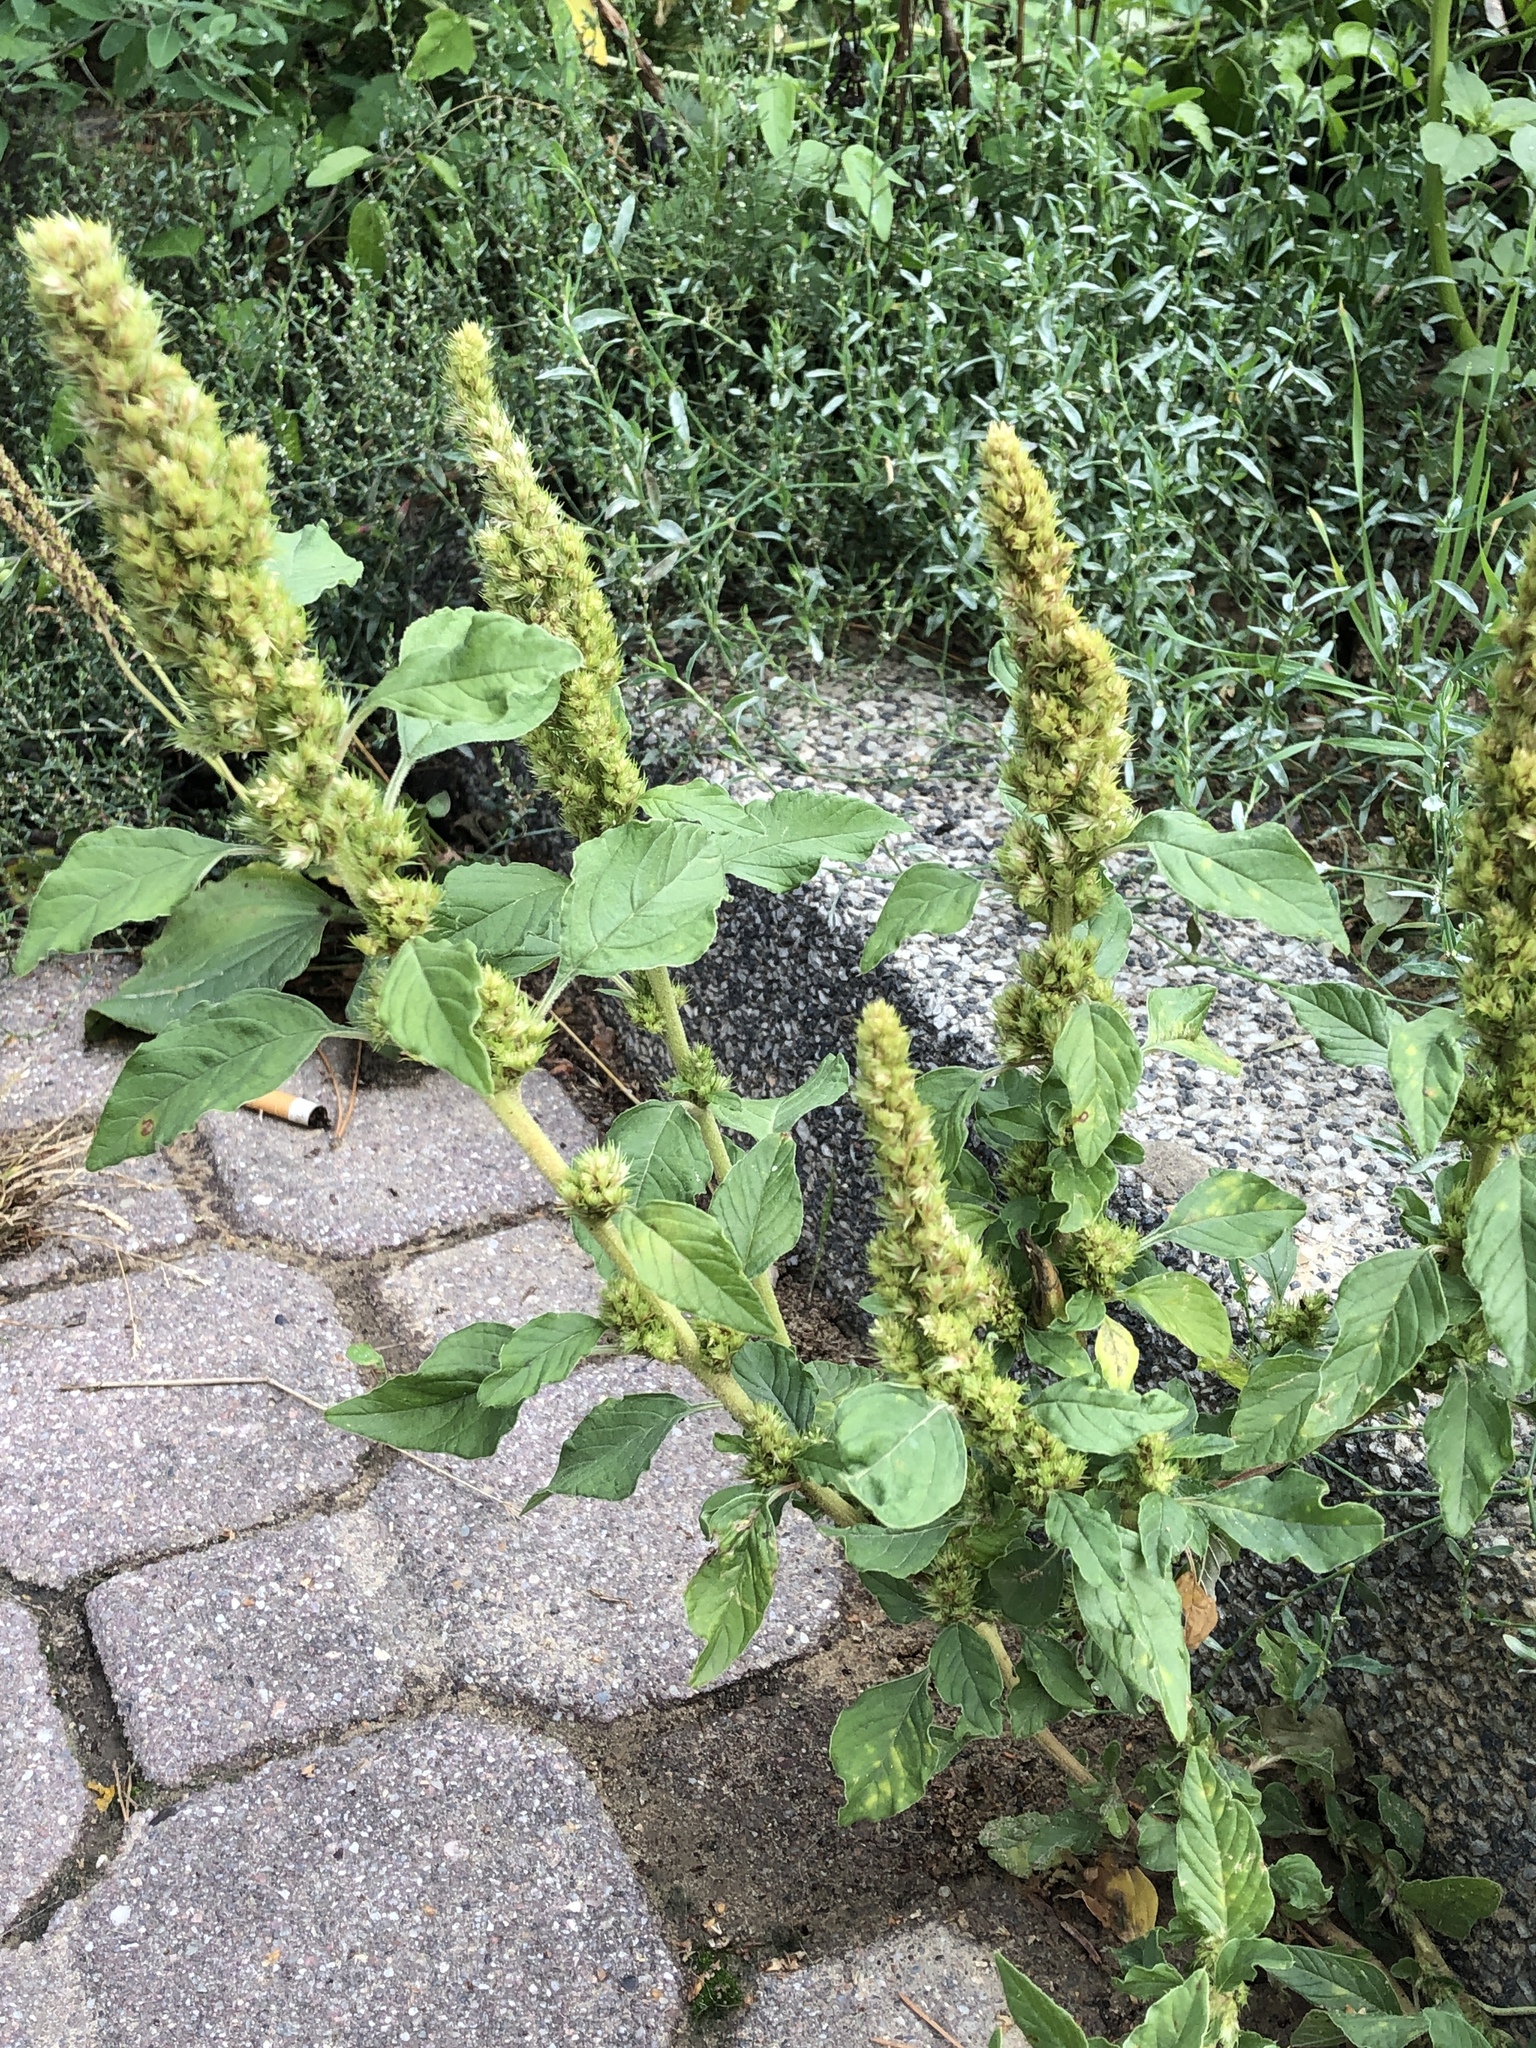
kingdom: Plantae
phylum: Tracheophyta
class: Magnoliopsida
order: Caryophyllales
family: Amaranthaceae
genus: Amaranthus
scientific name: Amaranthus retroflexus
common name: Redroot amaranth
